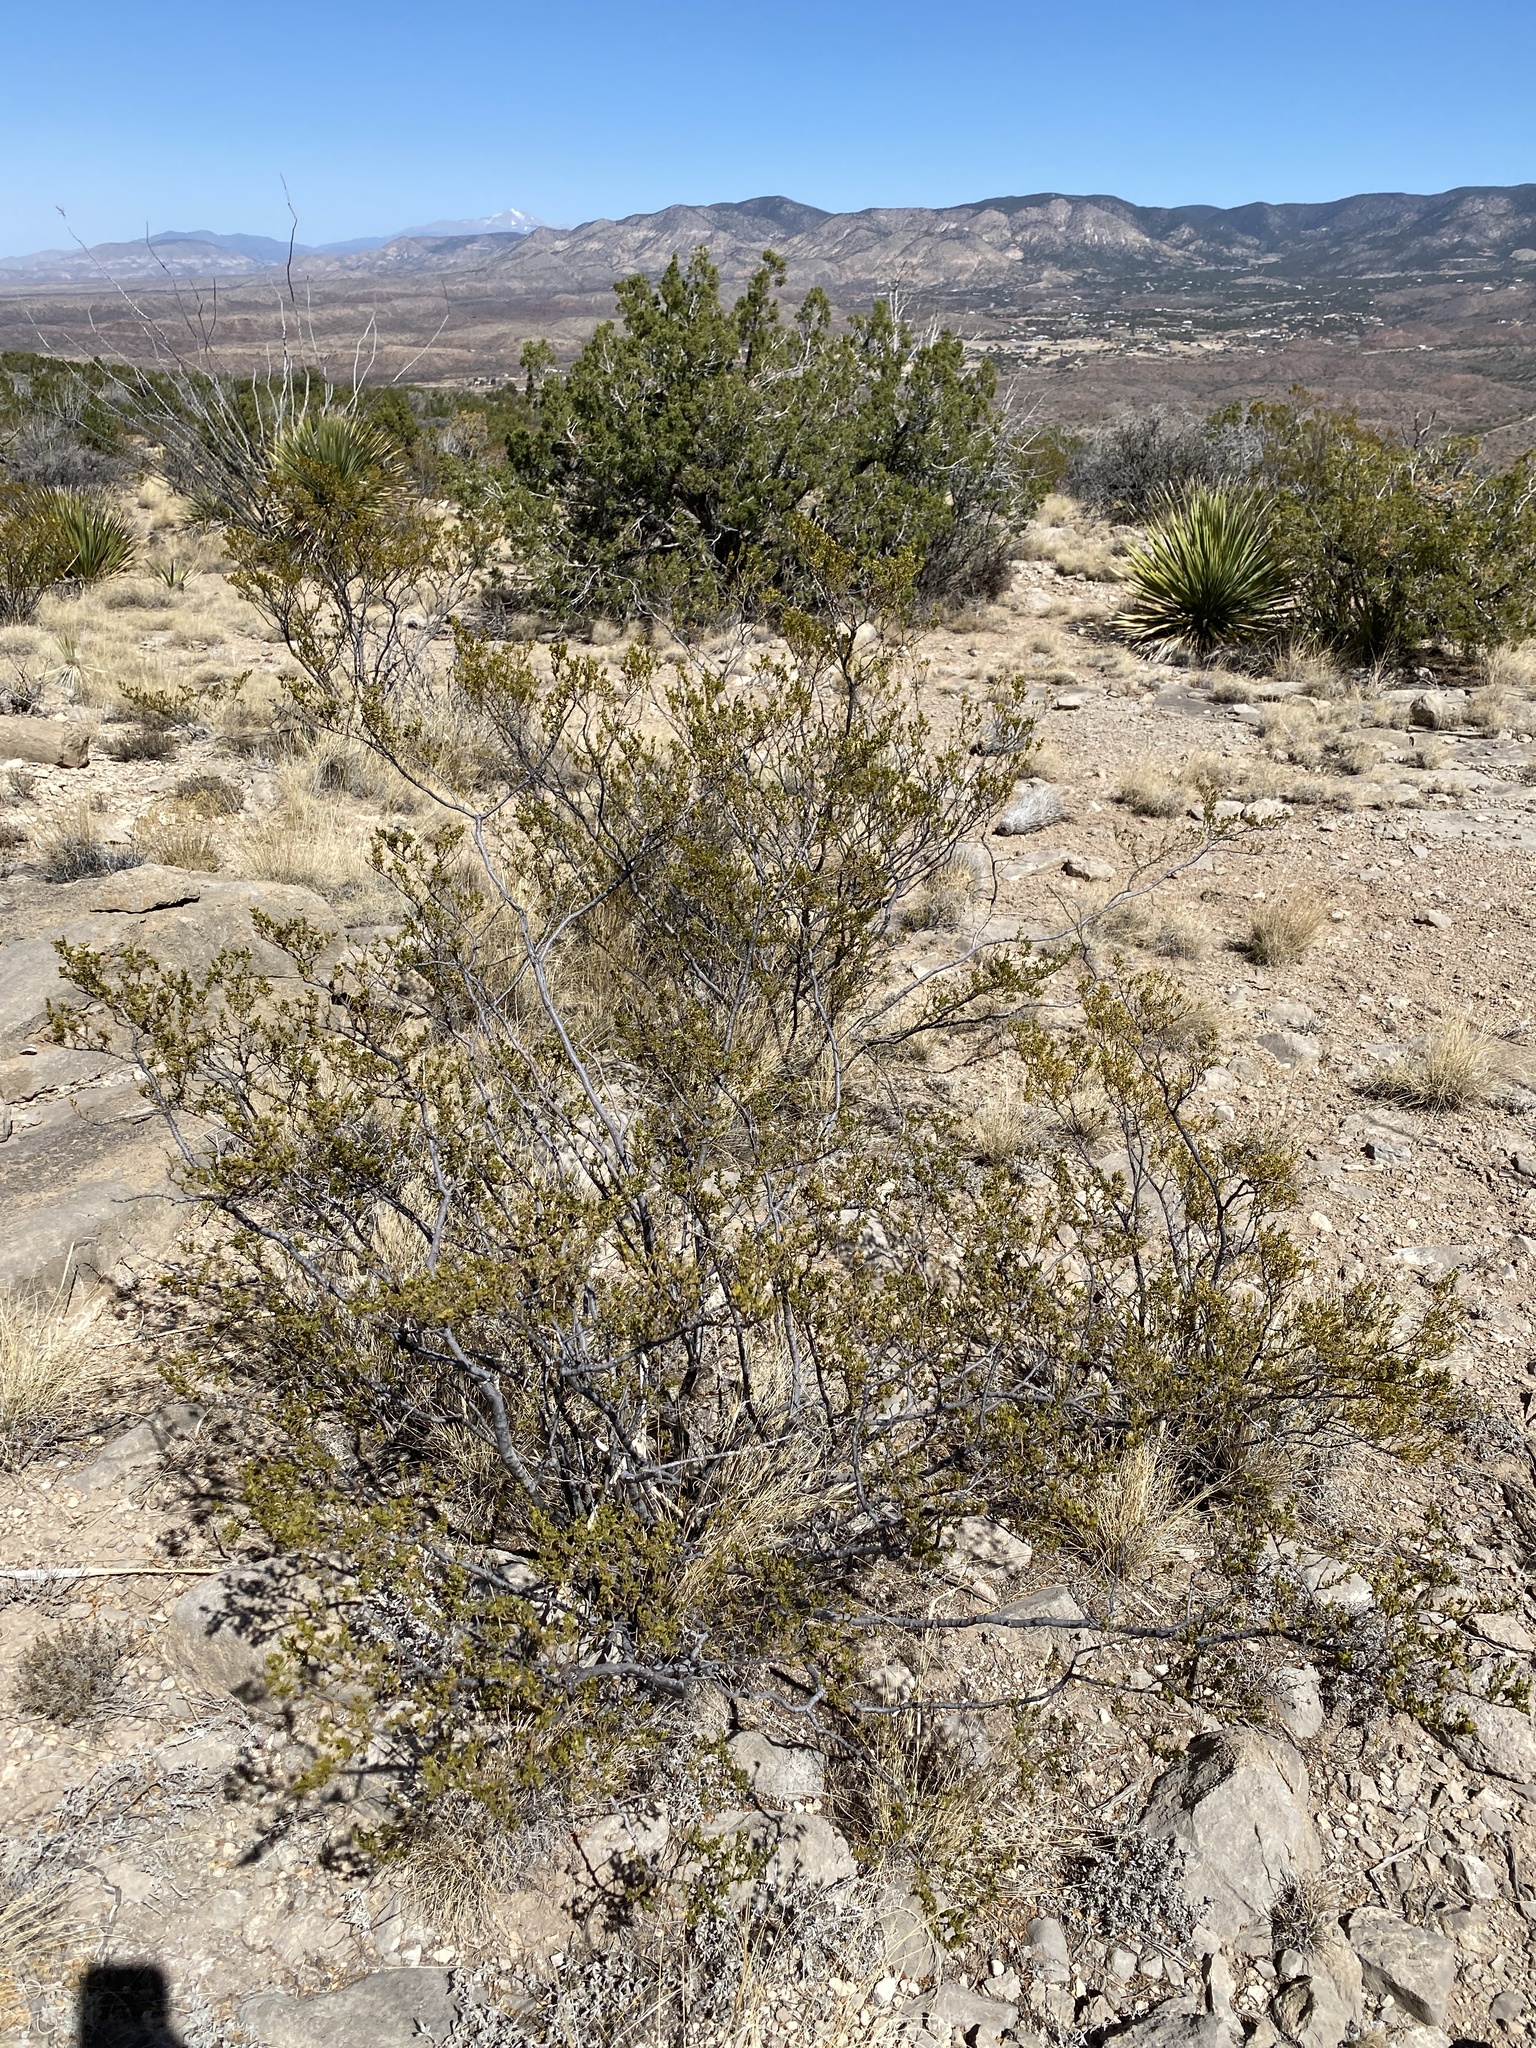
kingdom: Plantae
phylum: Tracheophyta
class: Magnoliopsida
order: Zygophyllales
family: Zygophyllaceae
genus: Larrea
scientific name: Larrea tridentata
